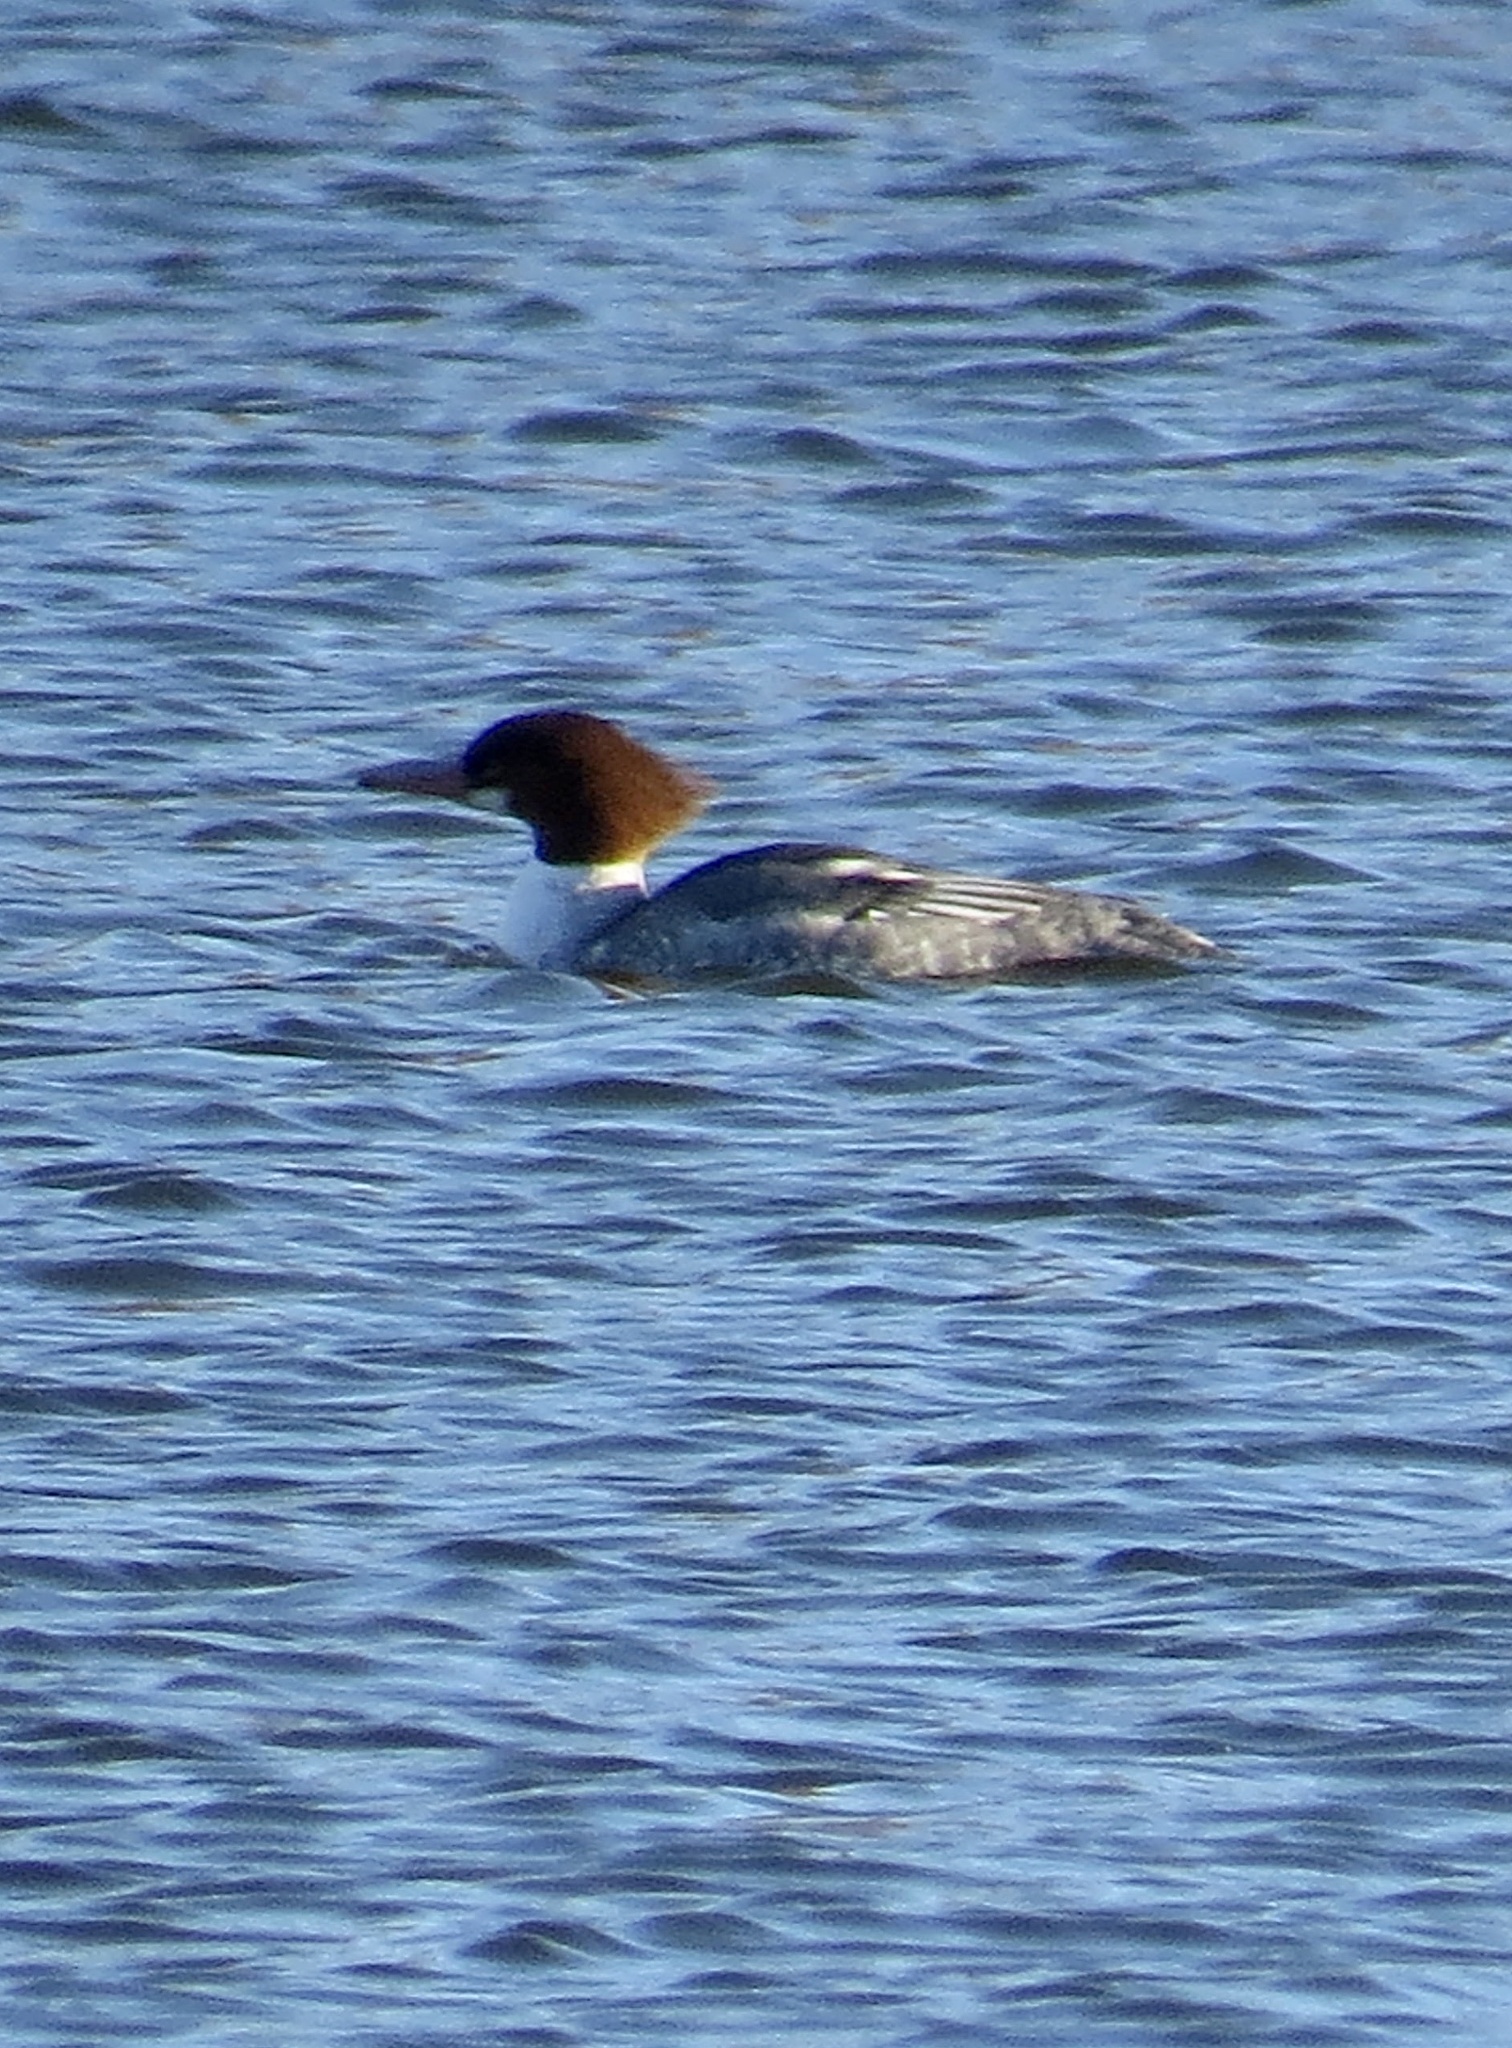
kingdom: Animalia
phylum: Chordata
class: Aves
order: Anseriformes
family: Anatidae
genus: Mergus
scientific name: Mergus merganser
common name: Common merganser
